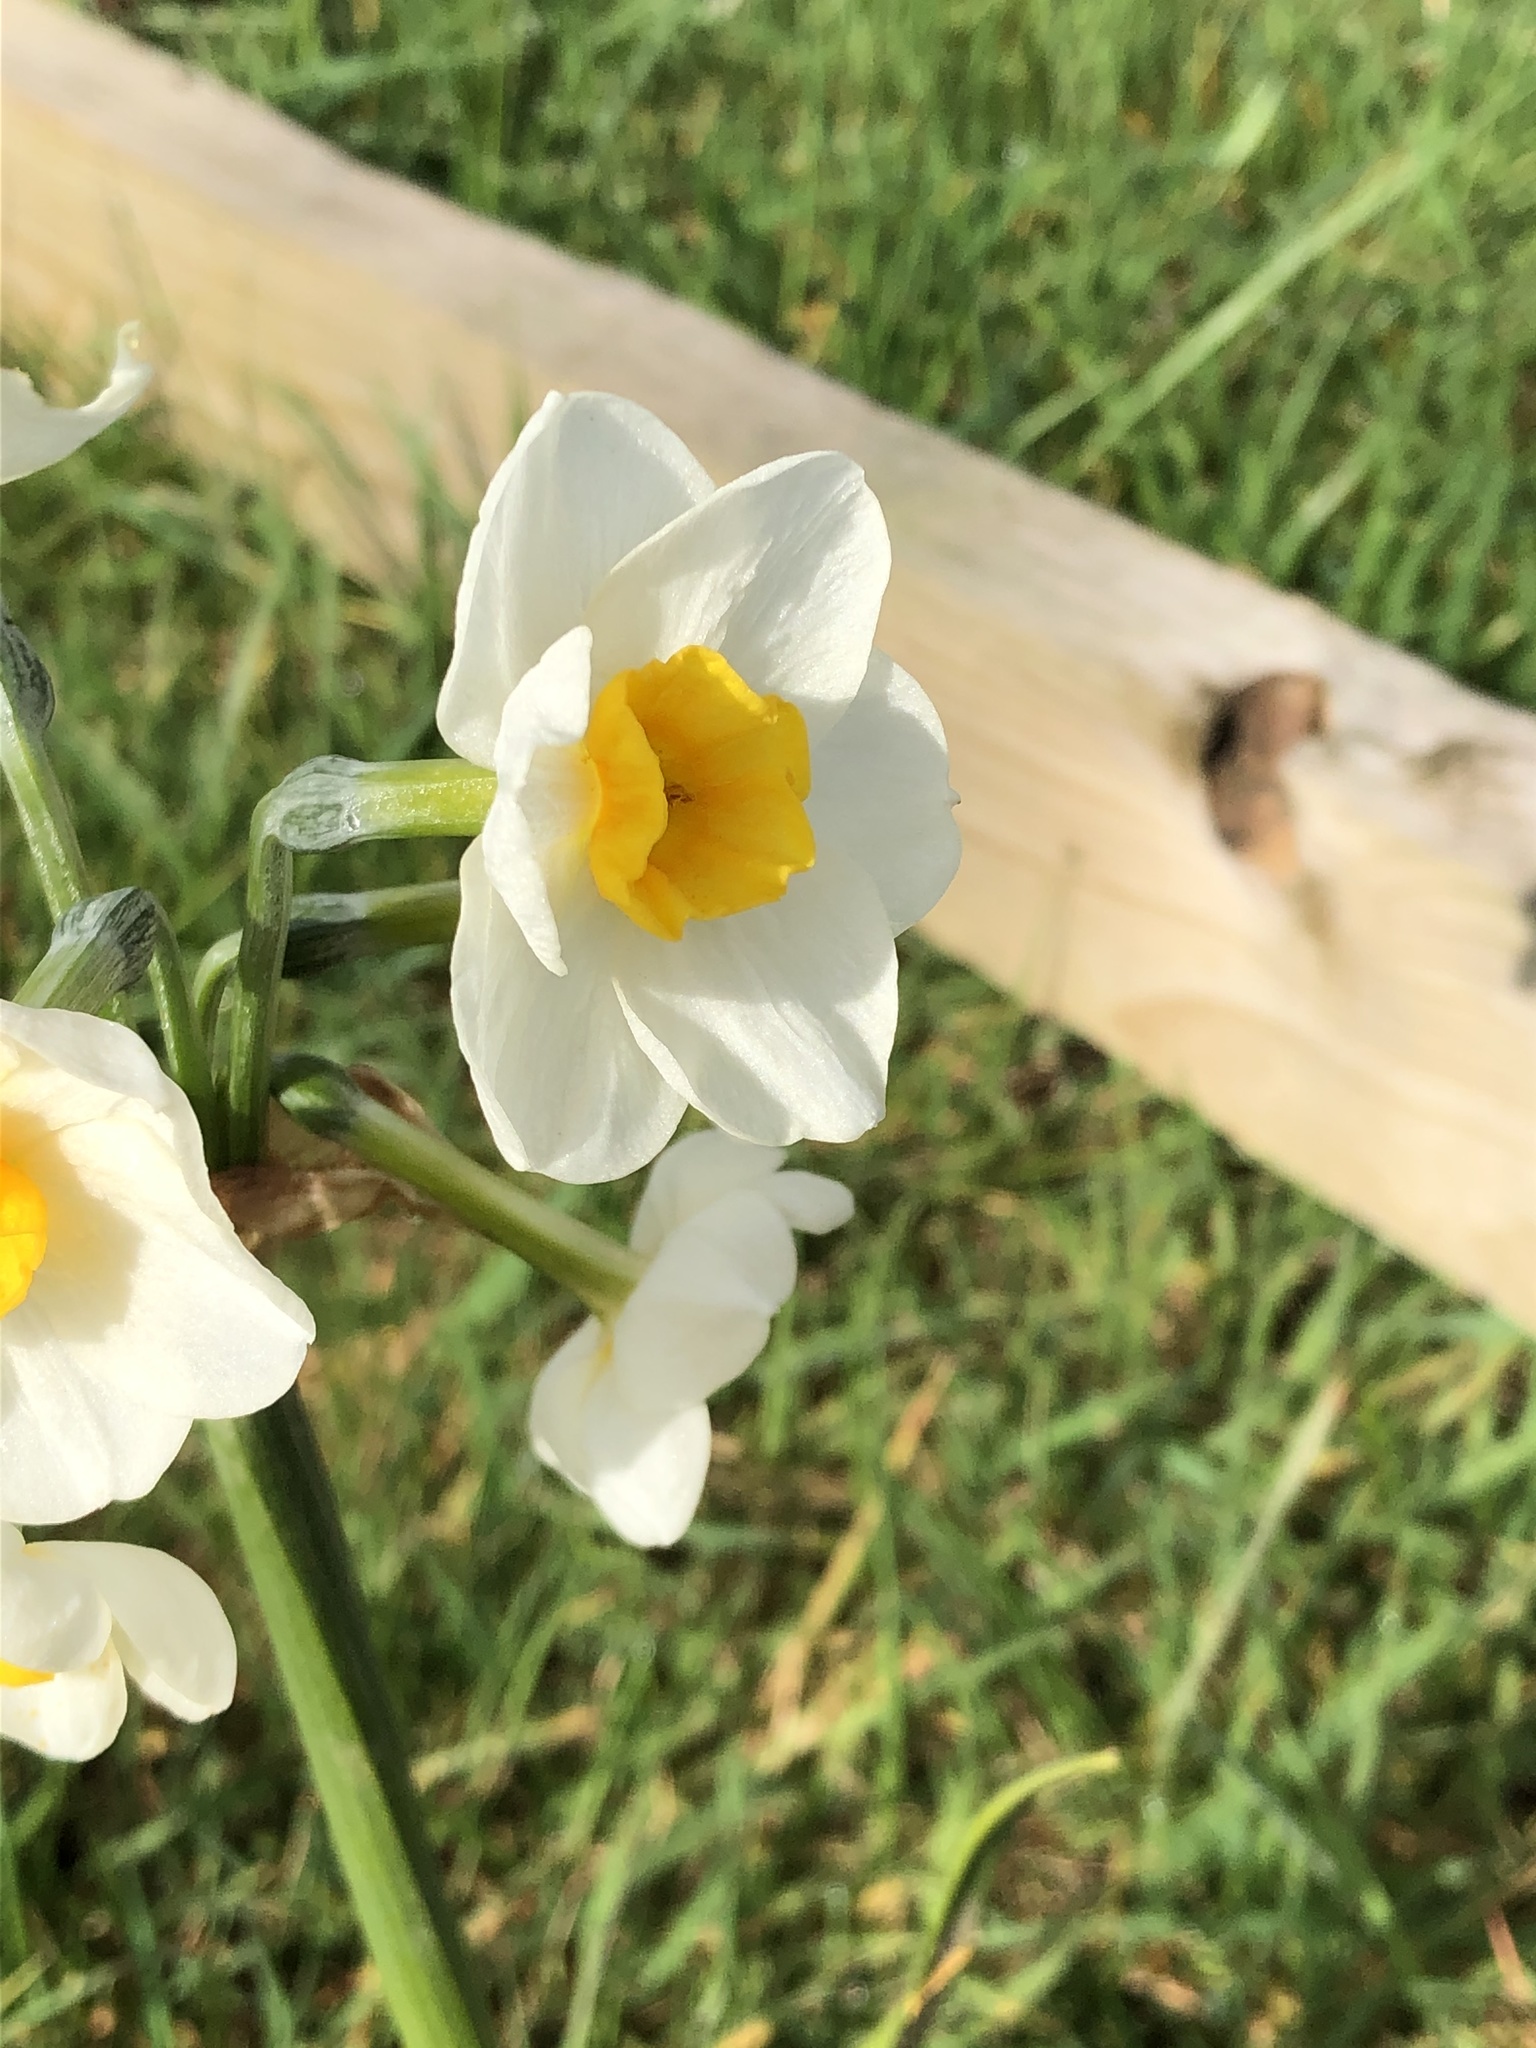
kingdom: Plantae
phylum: Tracheophyta
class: Liliopsida
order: Asparagales
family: Amaryllidaceae
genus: Narcissus
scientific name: Narcissus tazetta
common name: Bunch-flowered daffodil
